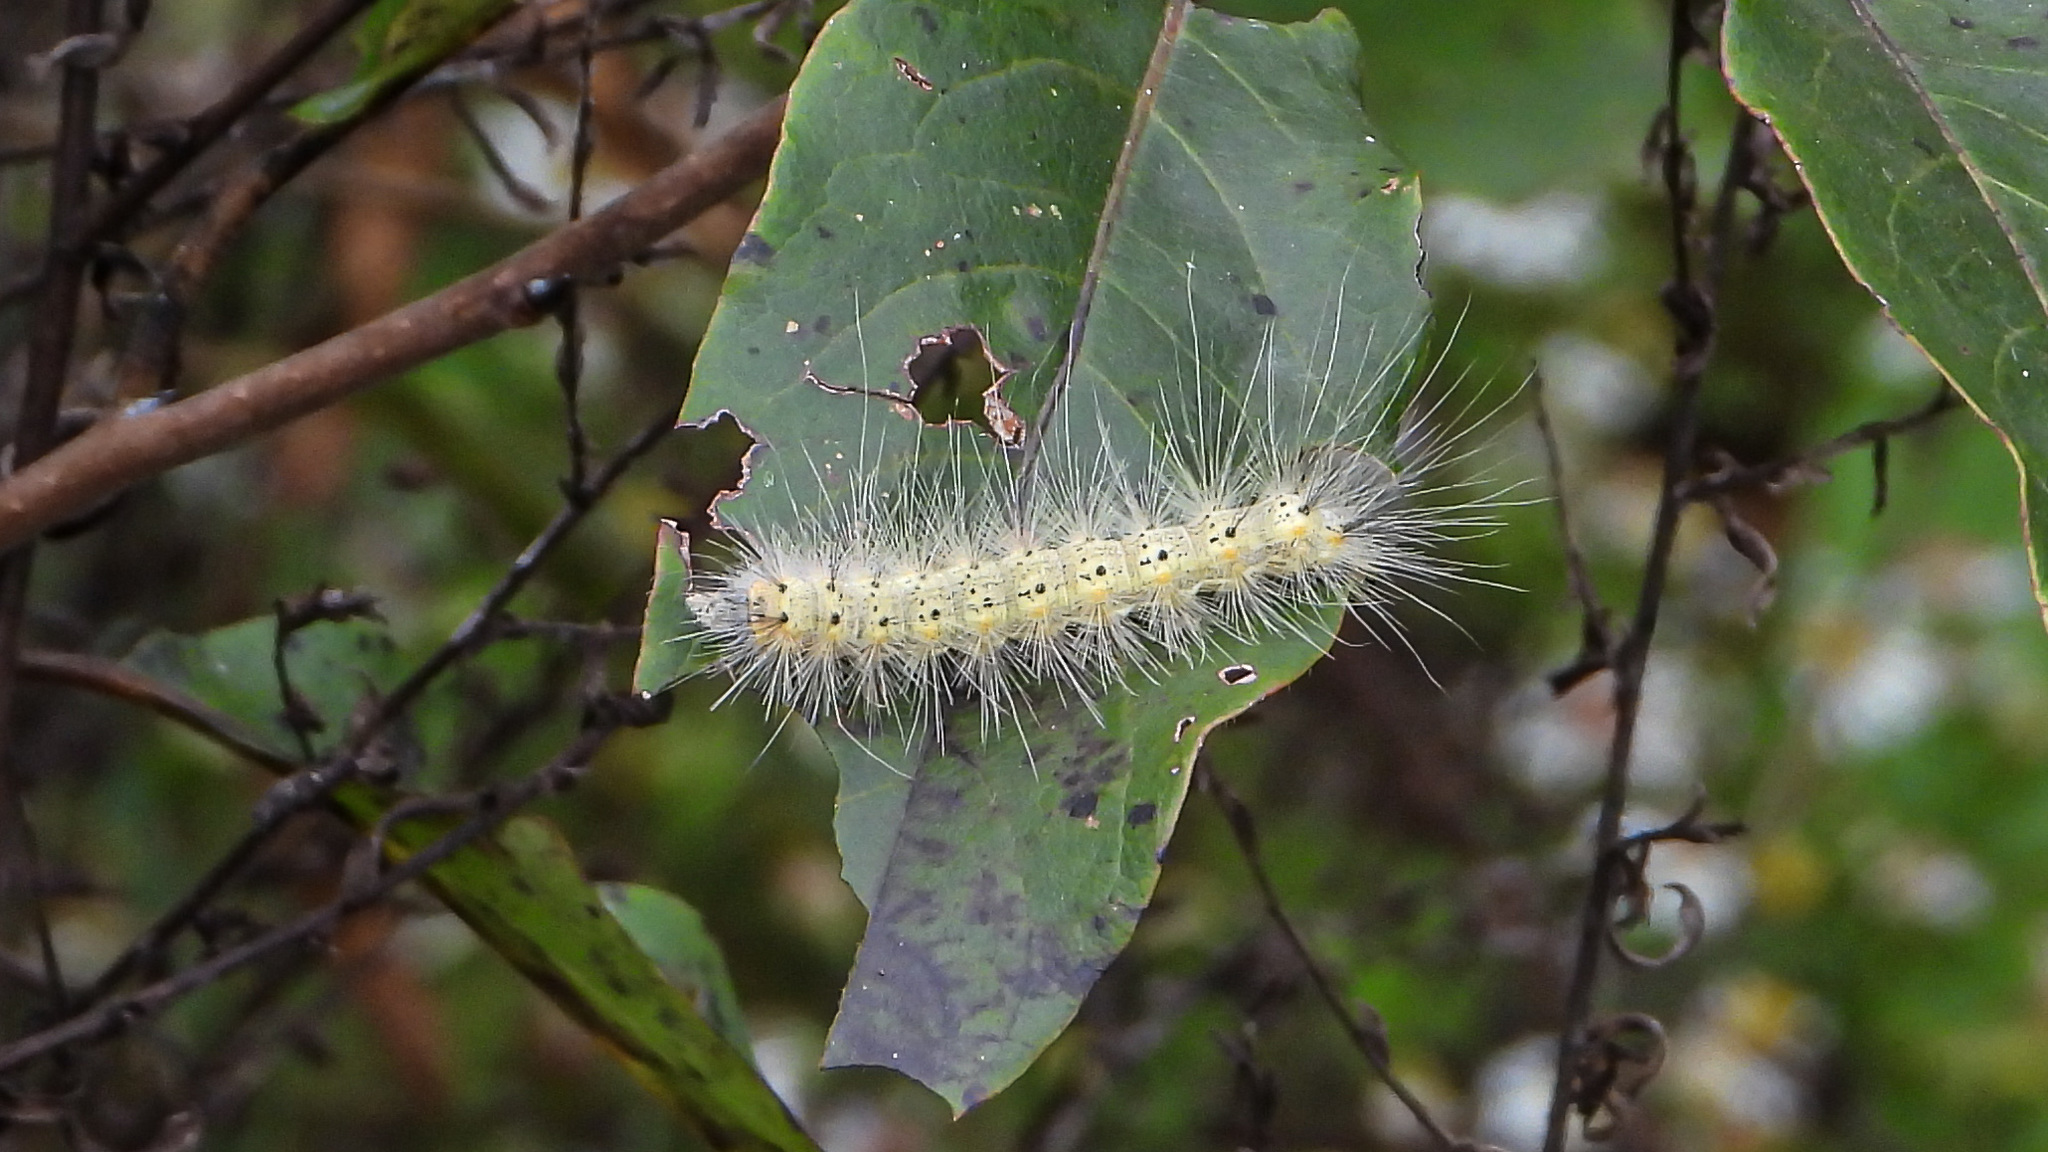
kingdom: Animalia
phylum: Arthropoda
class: Insecta
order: Lepidoptera
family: Erebidae
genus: Hyphantria
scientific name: Hyphantria cunea
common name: American white moth
